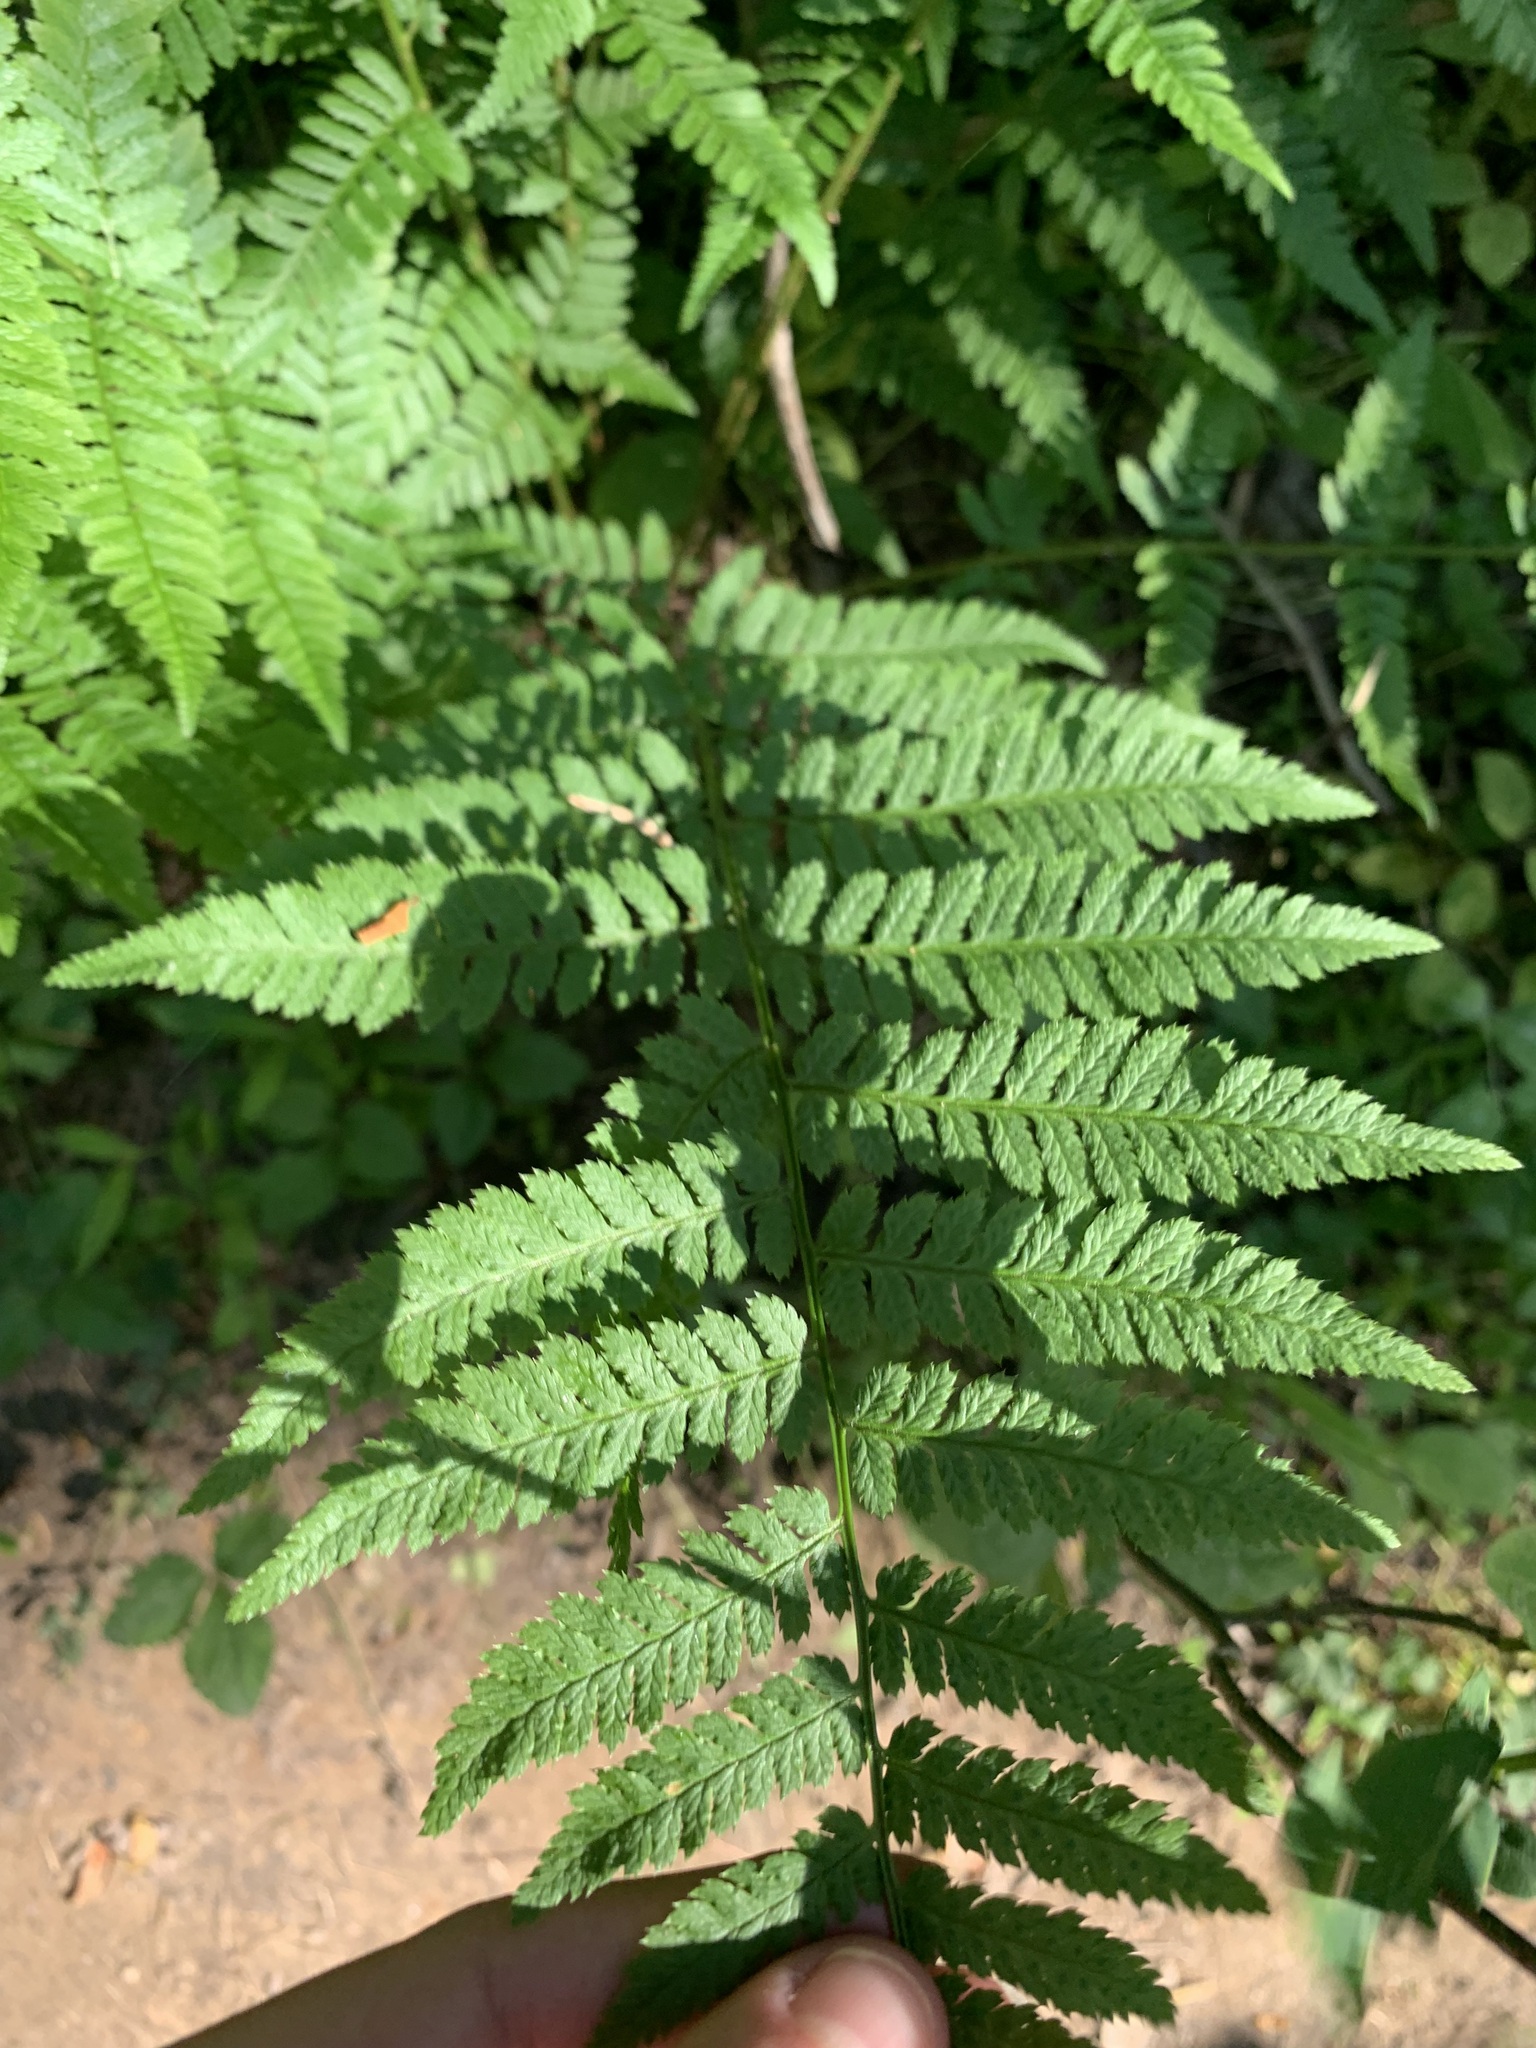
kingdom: Plantae
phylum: Tracheophyta
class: Polypodiopsida
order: Polypodiales
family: Dryopteridaceae
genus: Dryopteris
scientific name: Dryopteris carthusiana
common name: Narrow buckler-fern
